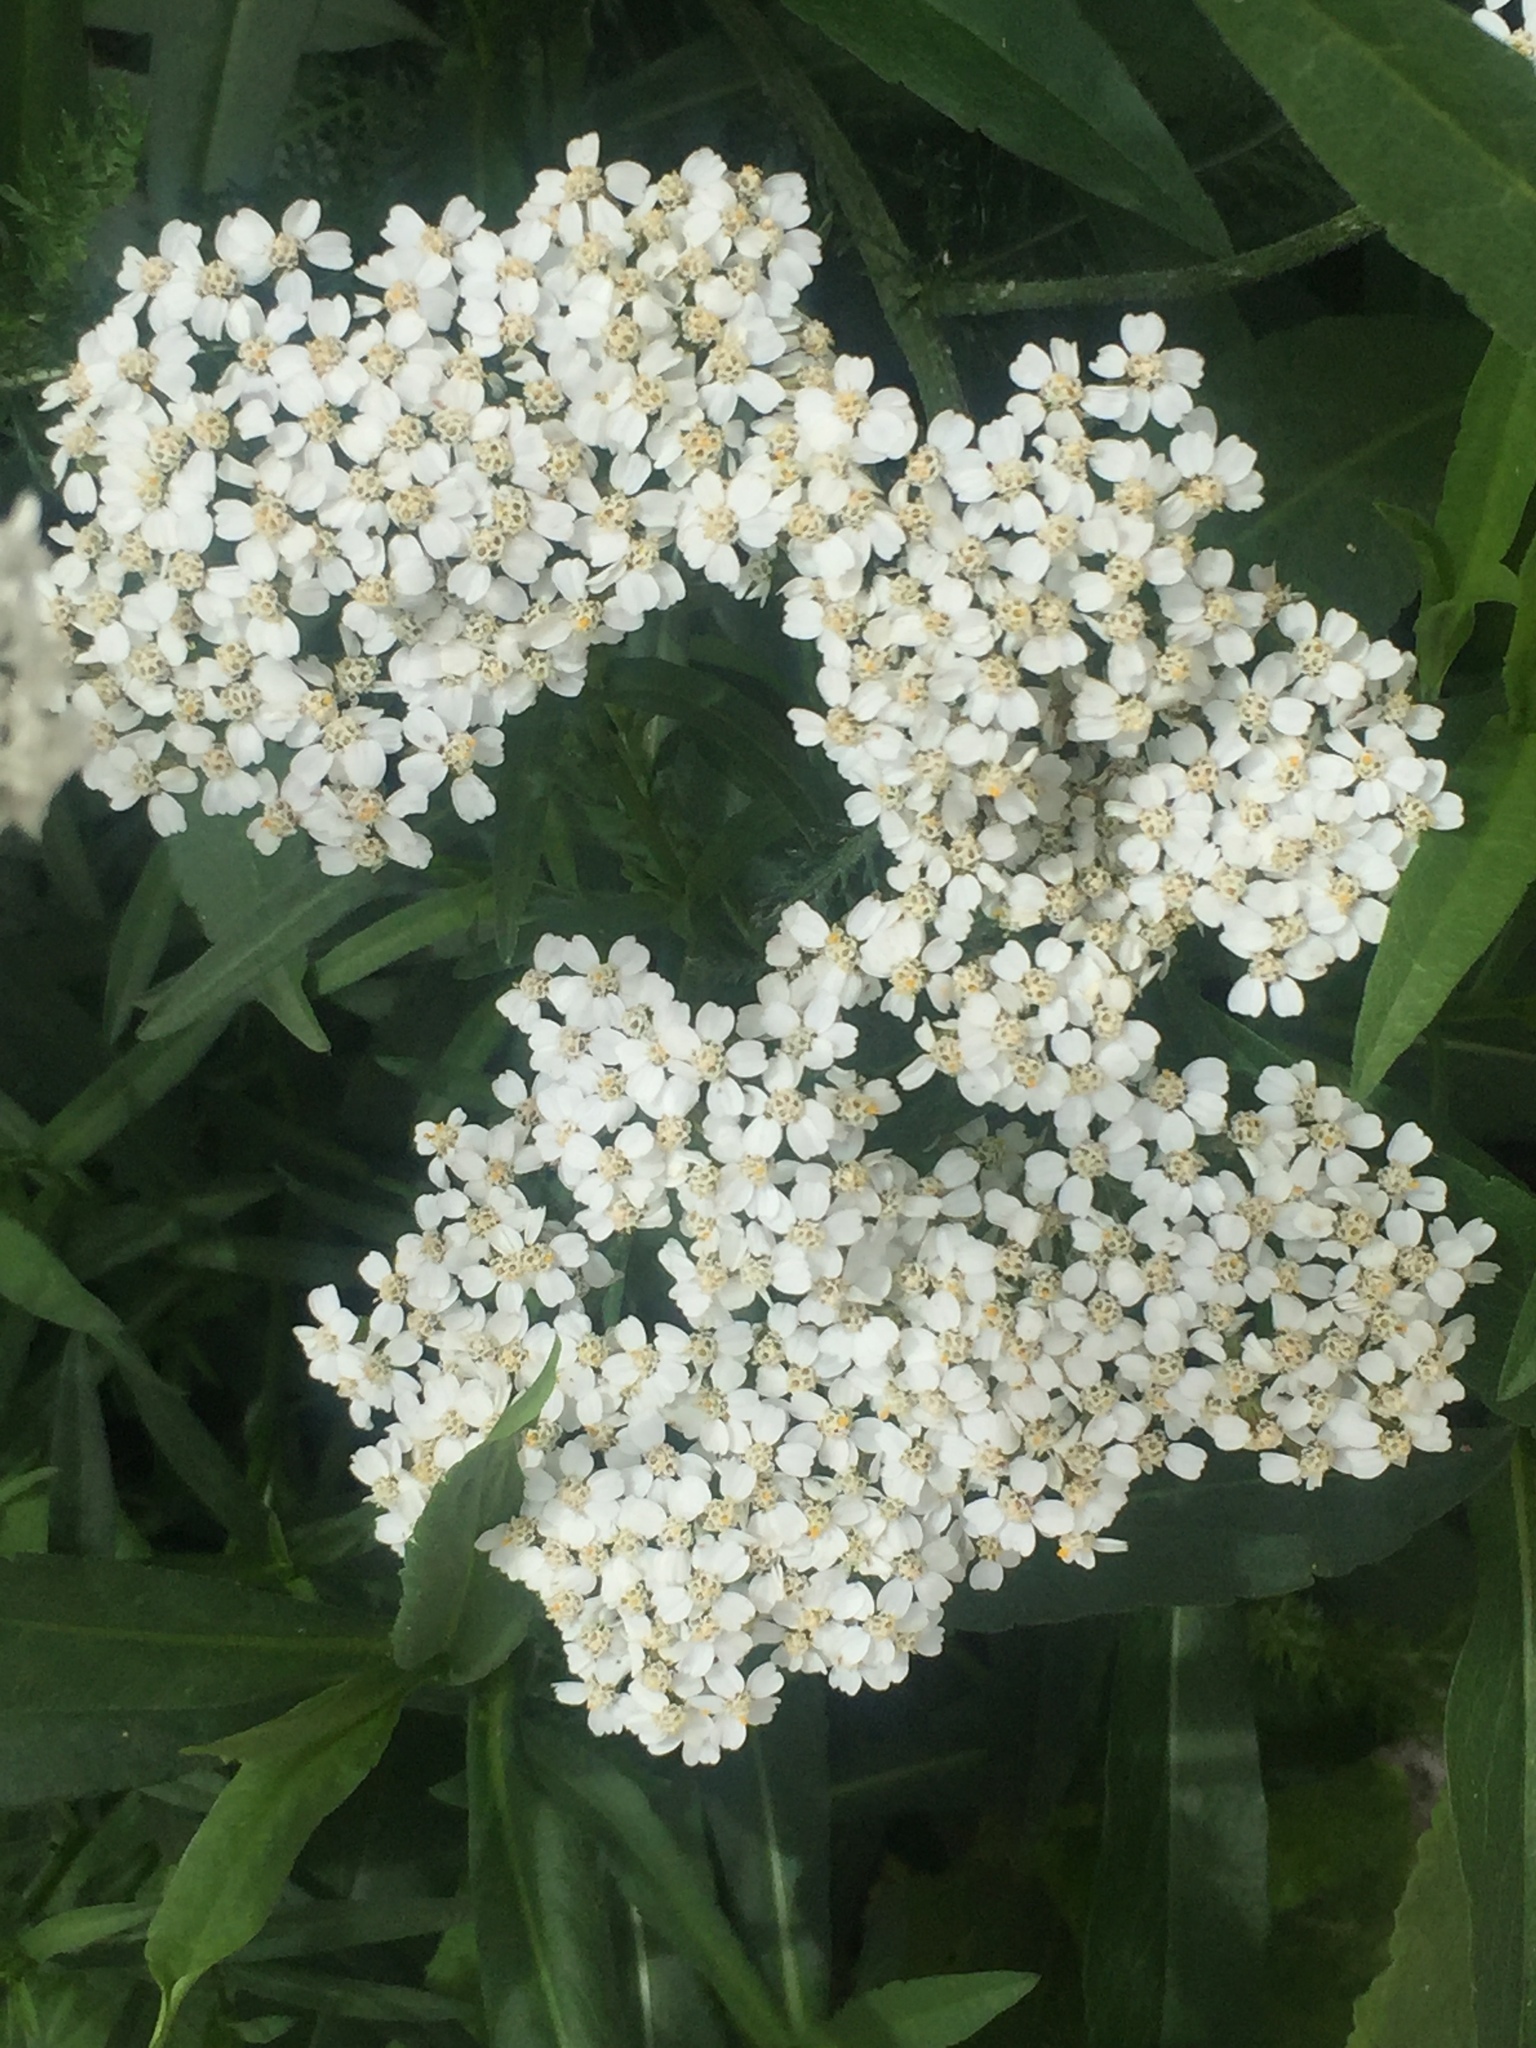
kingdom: Plantae
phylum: Tracheophyta
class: Magnoliopsida
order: Asterales
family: Asteraceae
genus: Achillea
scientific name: Achillea millefolium
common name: Yarrow
